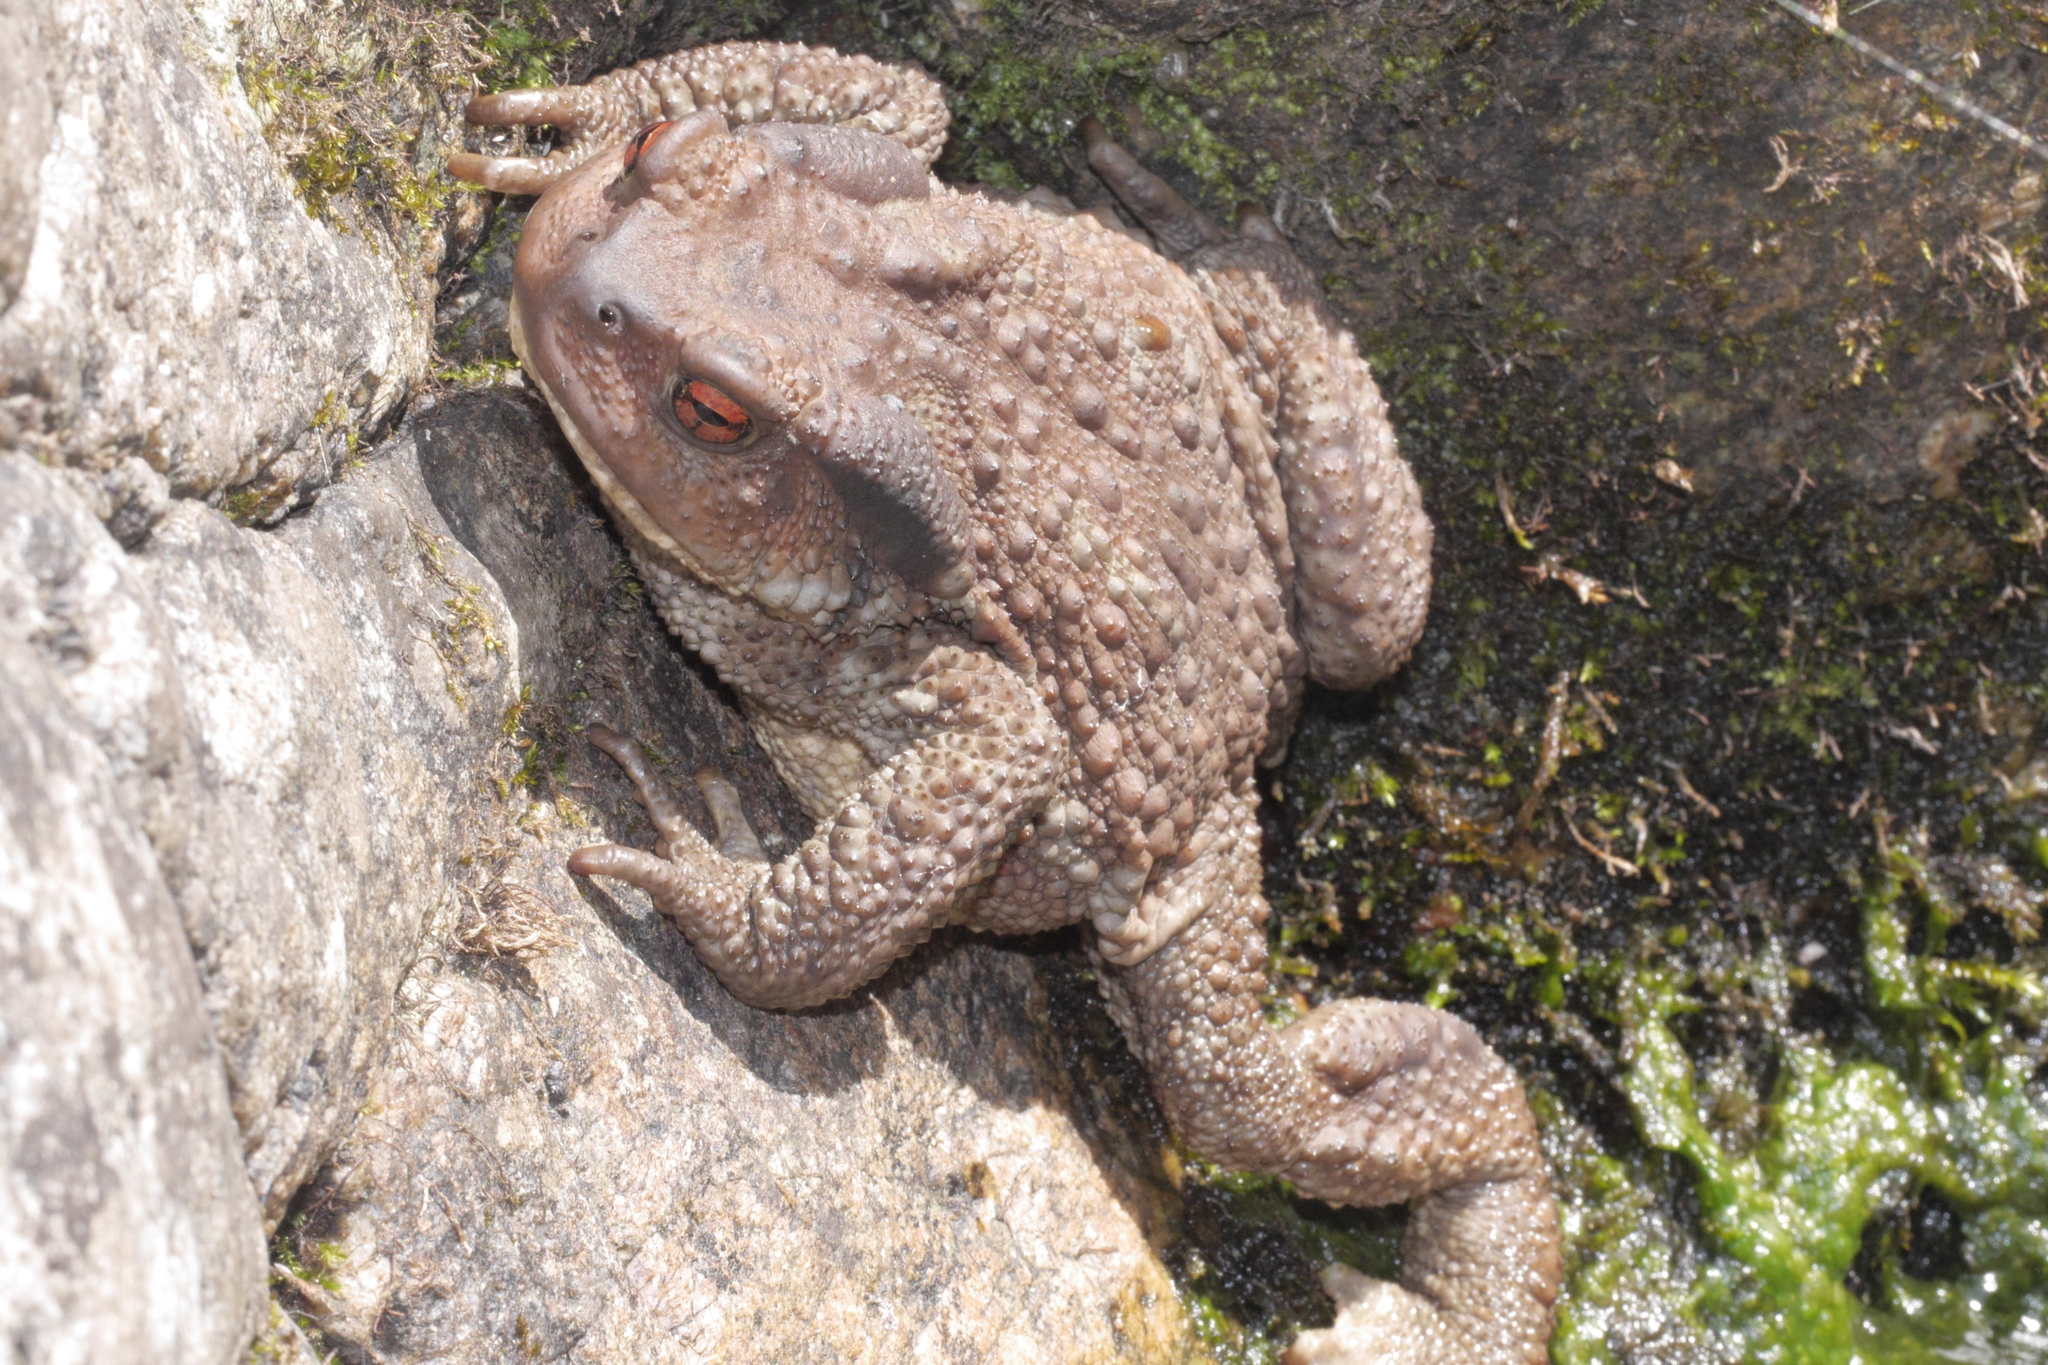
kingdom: Animalia
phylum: Chordata
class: Amphibia
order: Anura
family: Bufonidae
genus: Bufo
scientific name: Bufo spinosus
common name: Western common toad
